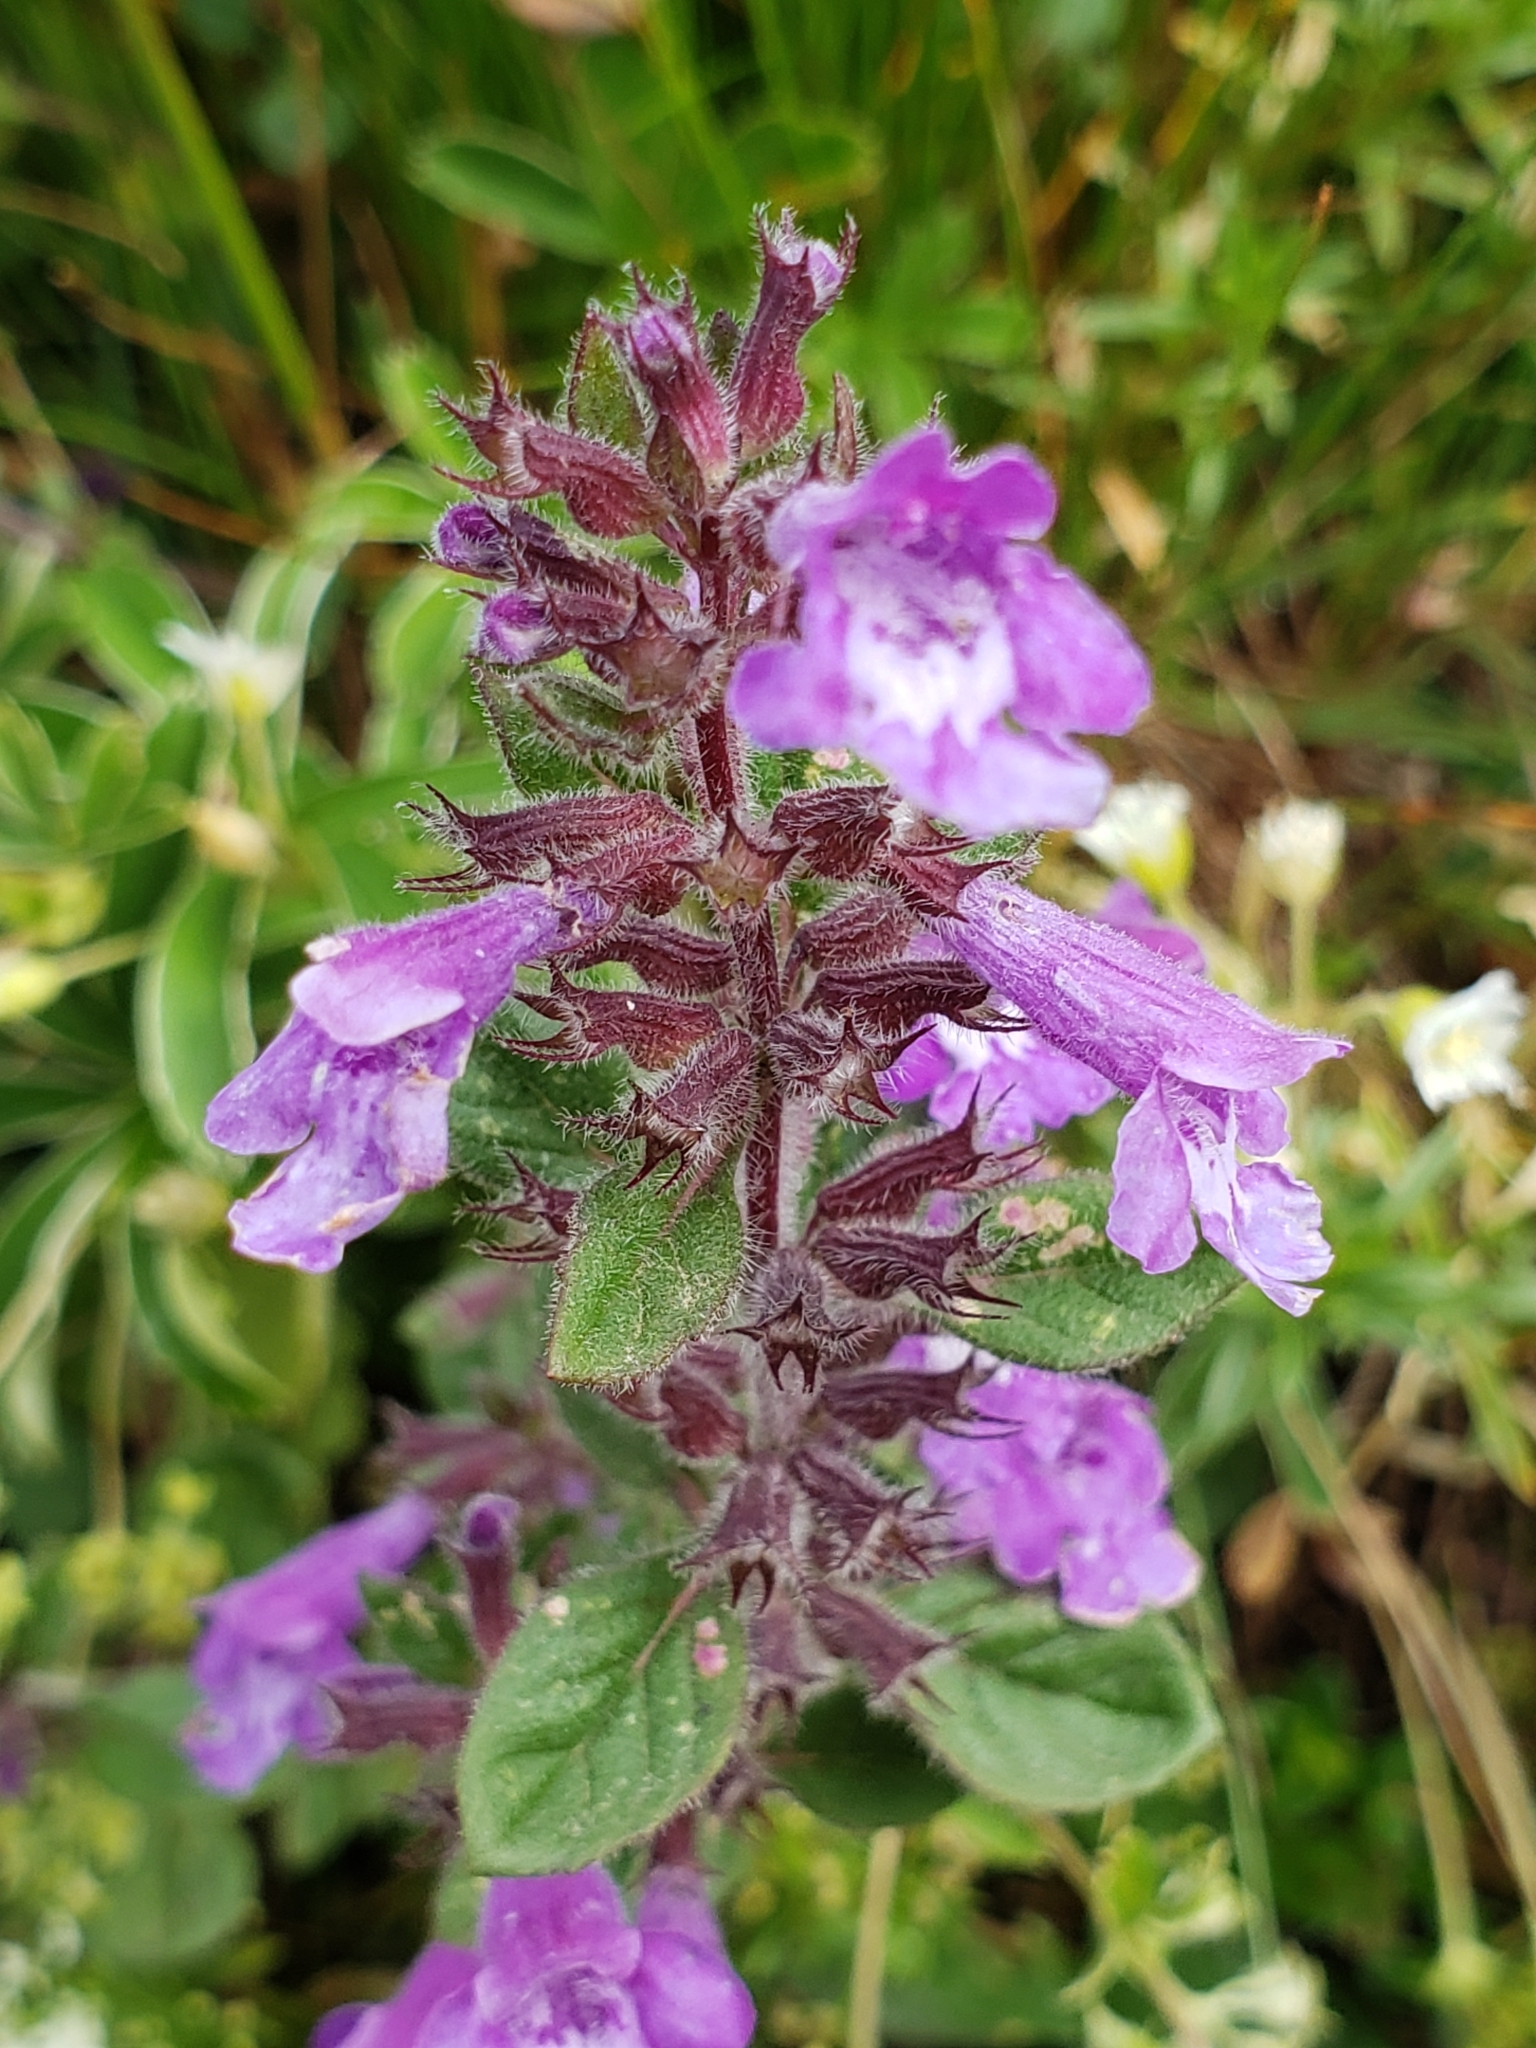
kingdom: Plantae
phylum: Tracheophyta
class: Magnoliopsida
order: Lamiales
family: Lamiaceae
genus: Clinopodium
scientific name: Clinopodium alpinum
